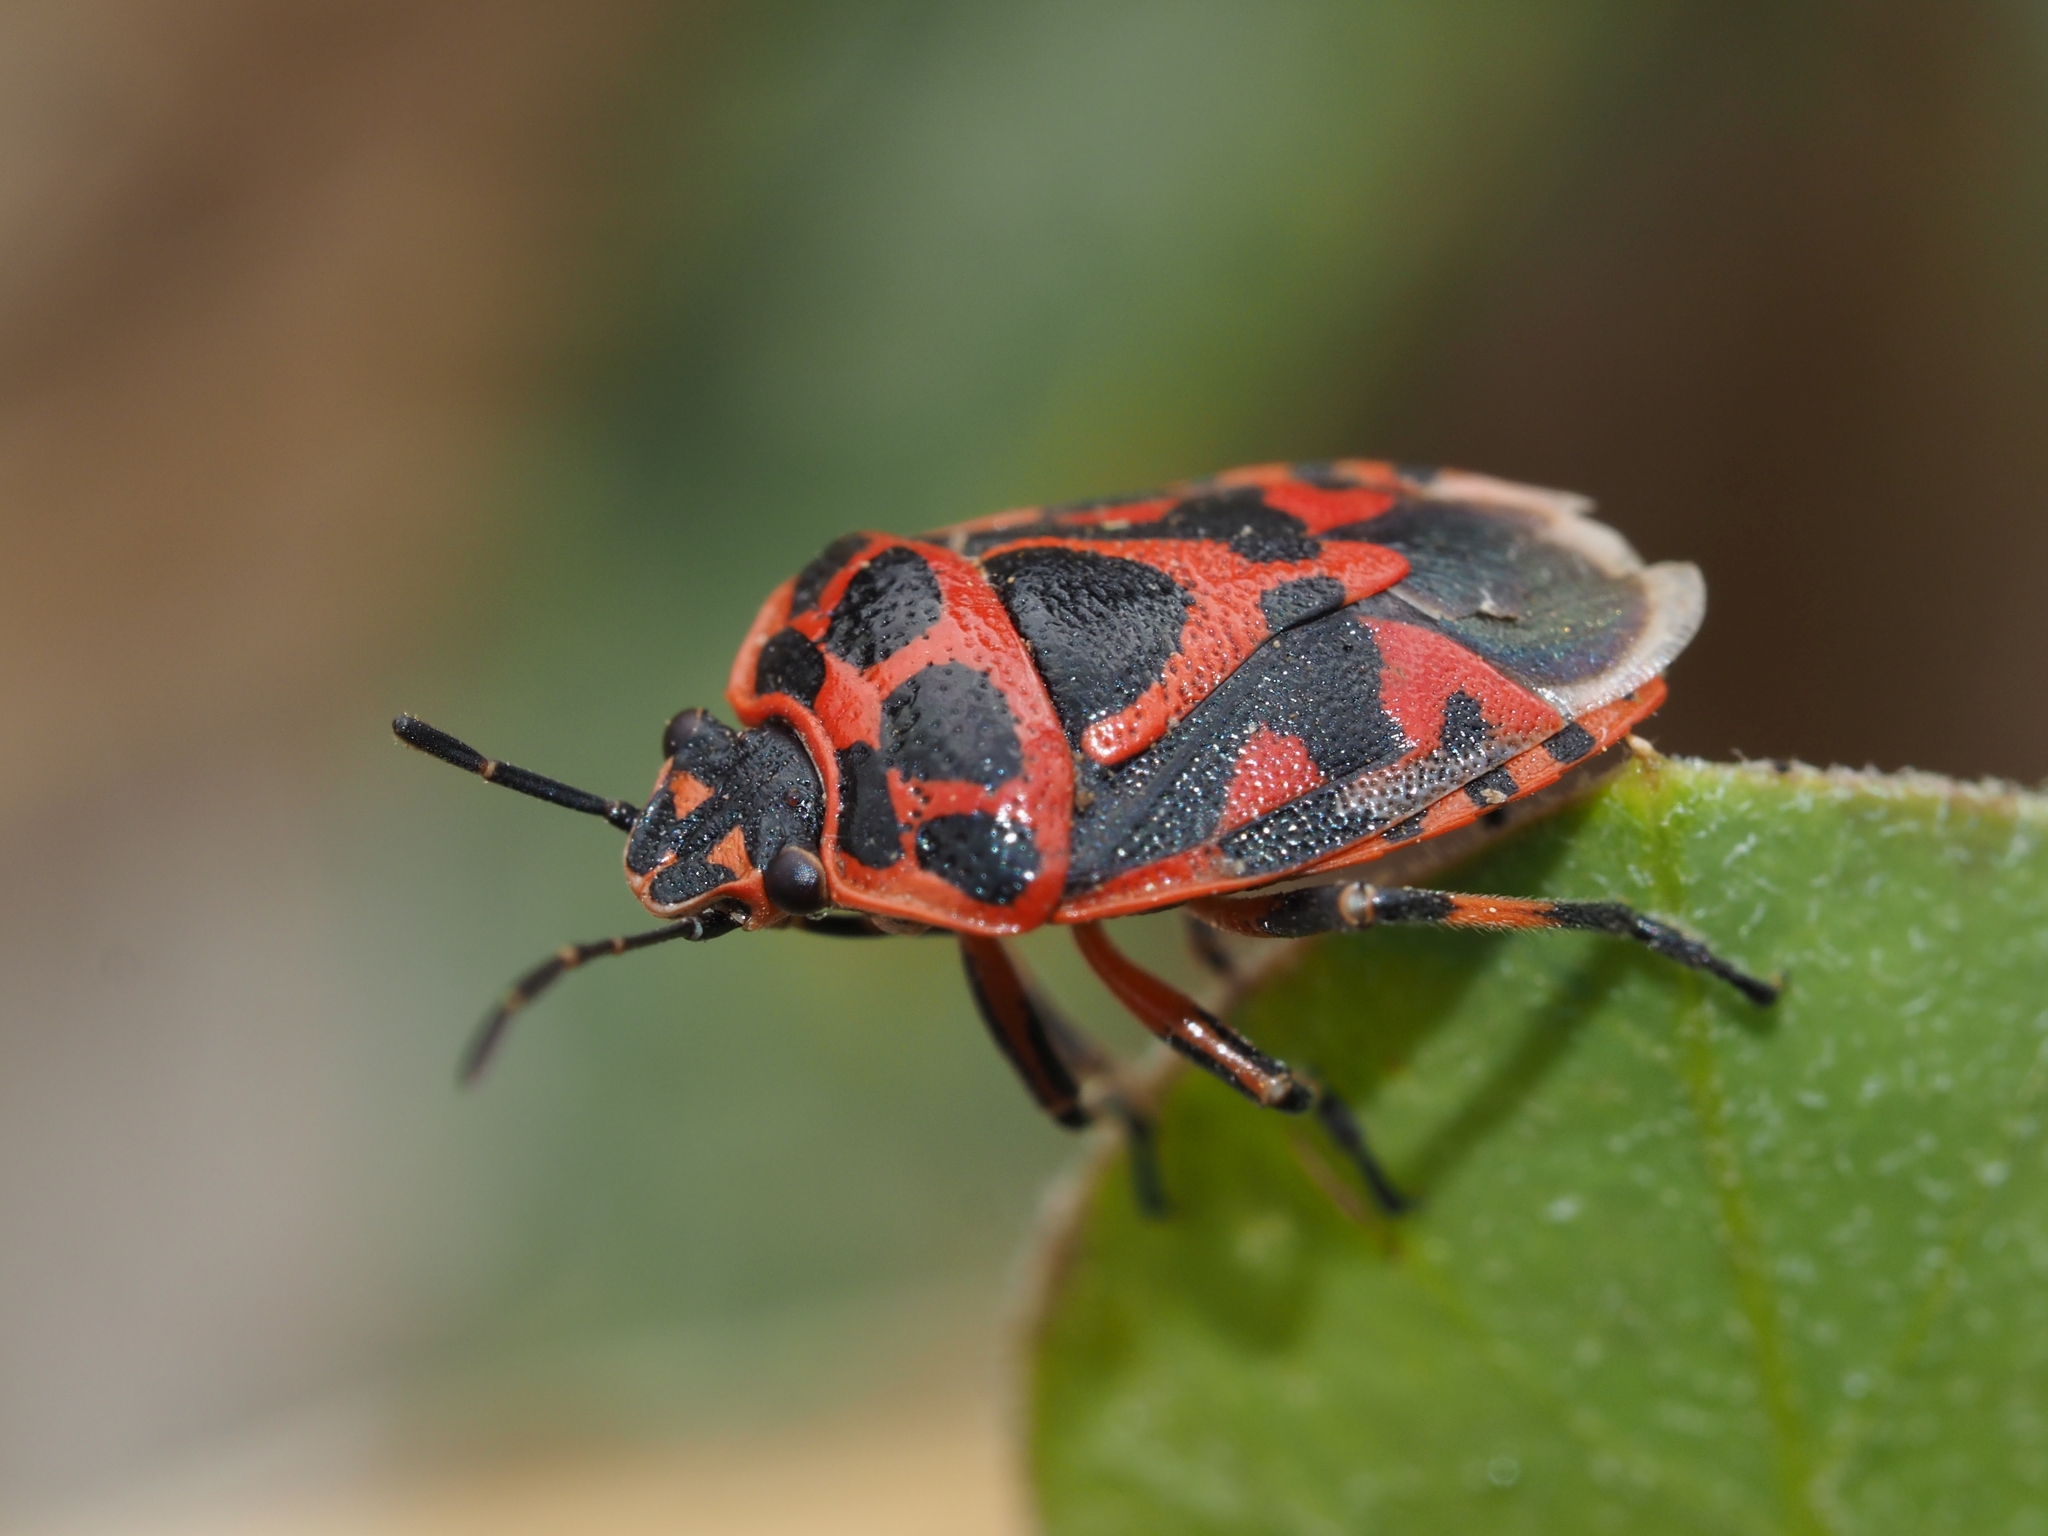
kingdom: Animalia
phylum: Arthropoda
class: Insecta
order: Hemiptera
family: Pentatomidae
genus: Eurydema
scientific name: Eurydema ornata
